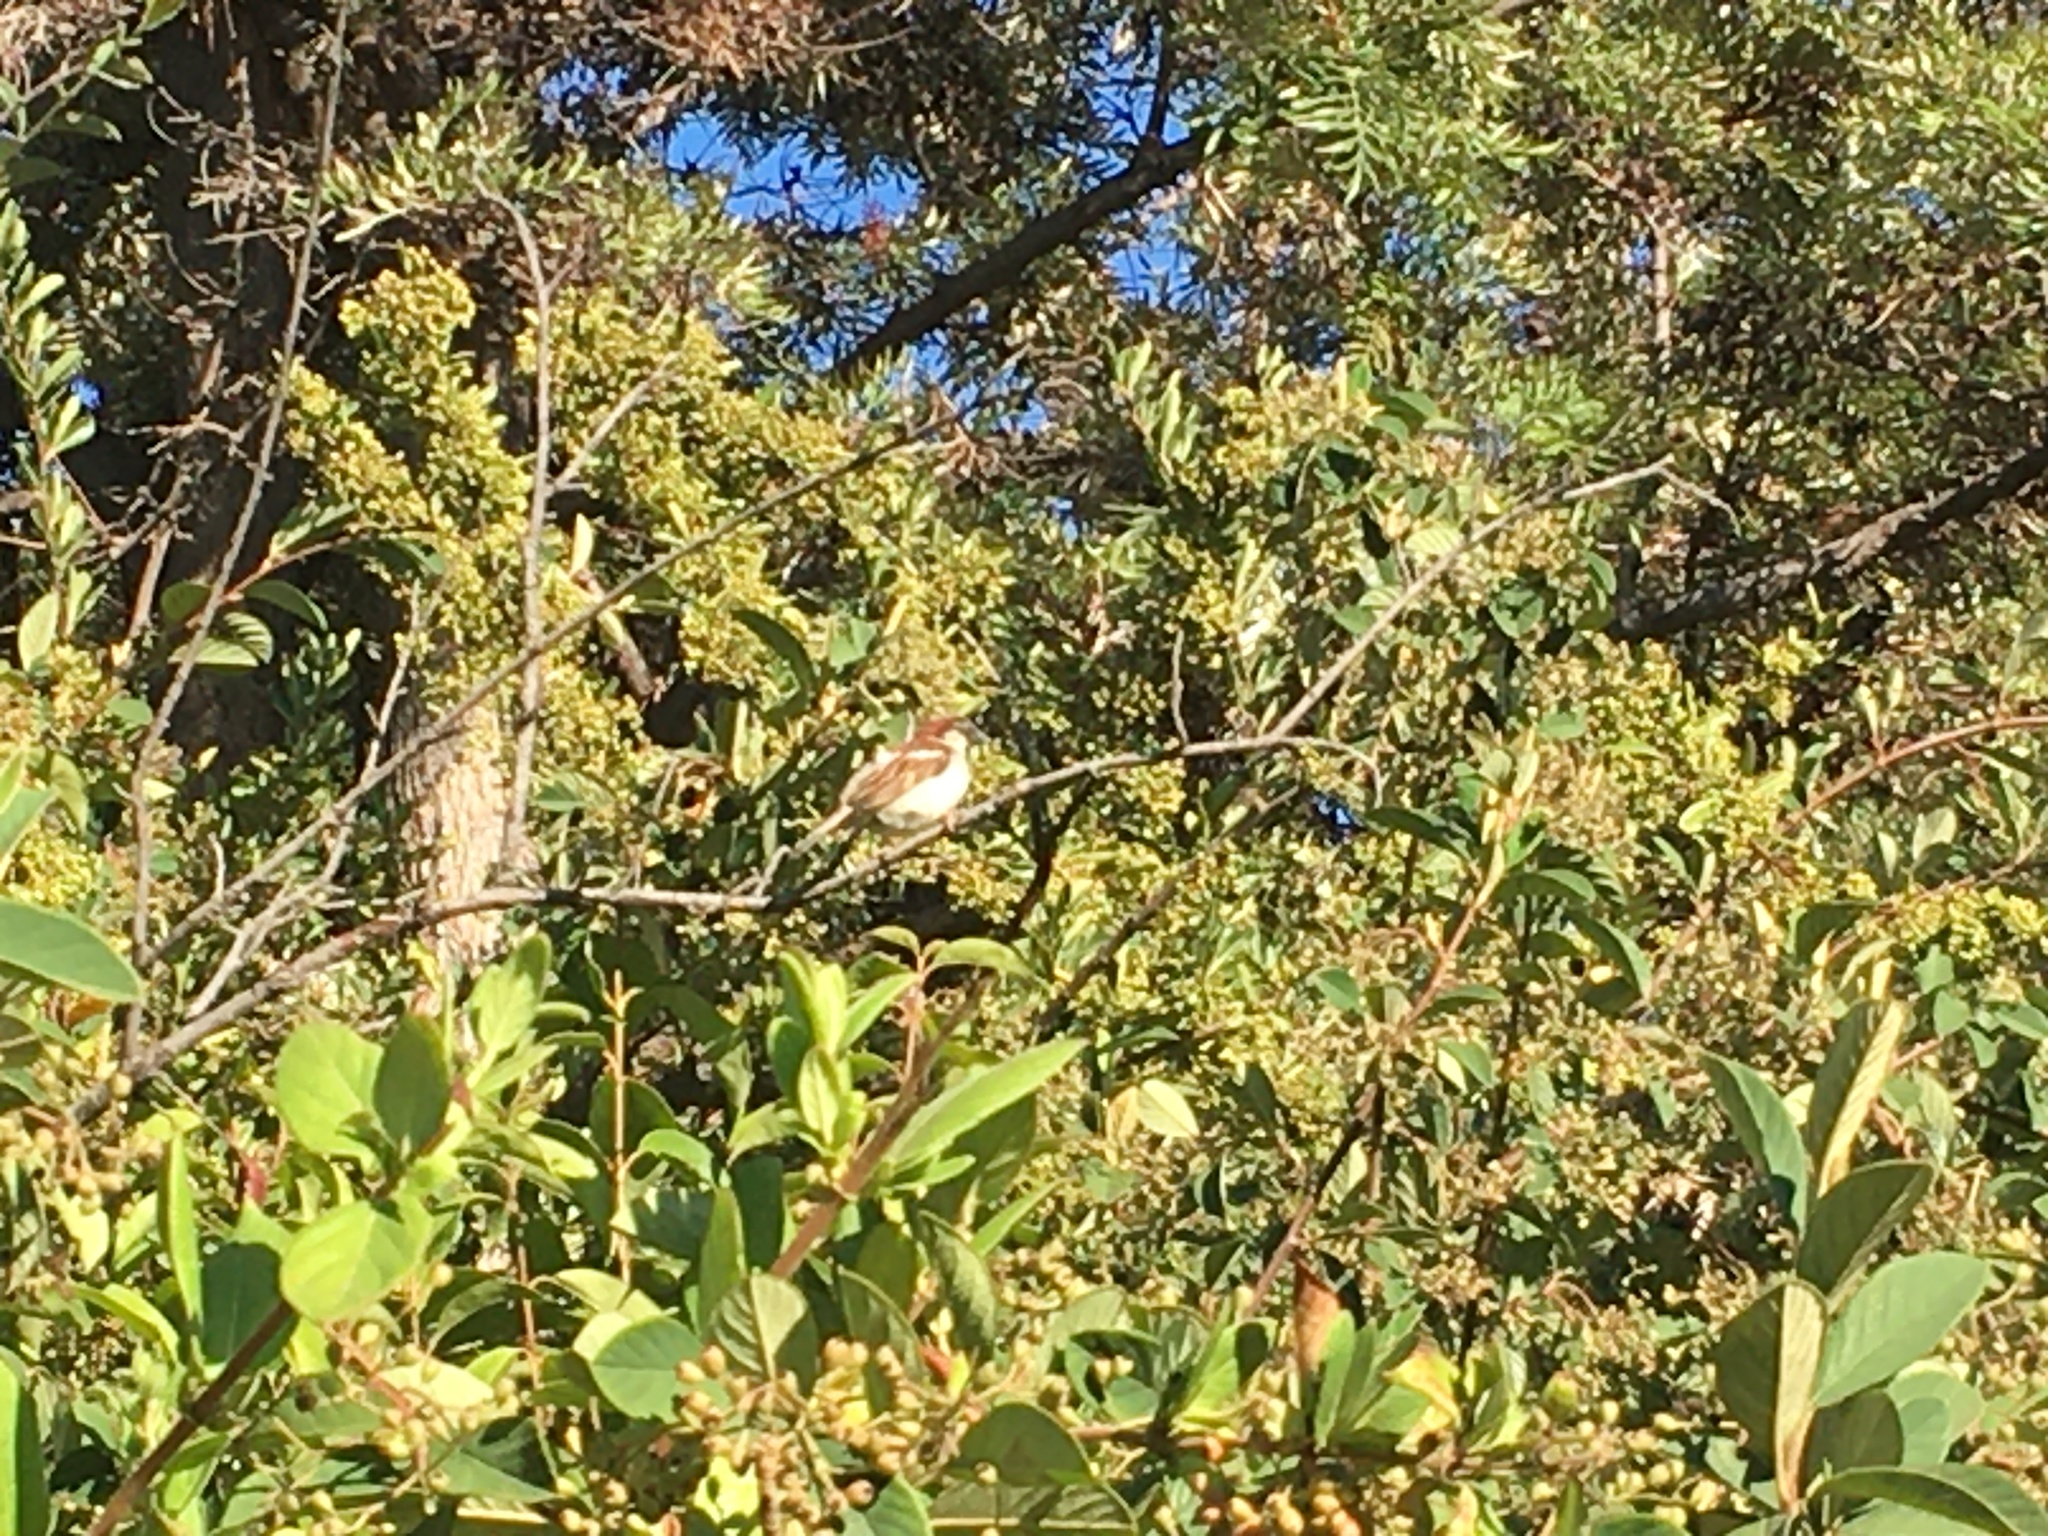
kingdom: Animalia
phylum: Chordata
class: Aves
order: Passeriformes
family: Passeridae
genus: Passer
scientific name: Passer domesticus
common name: House sparrow
